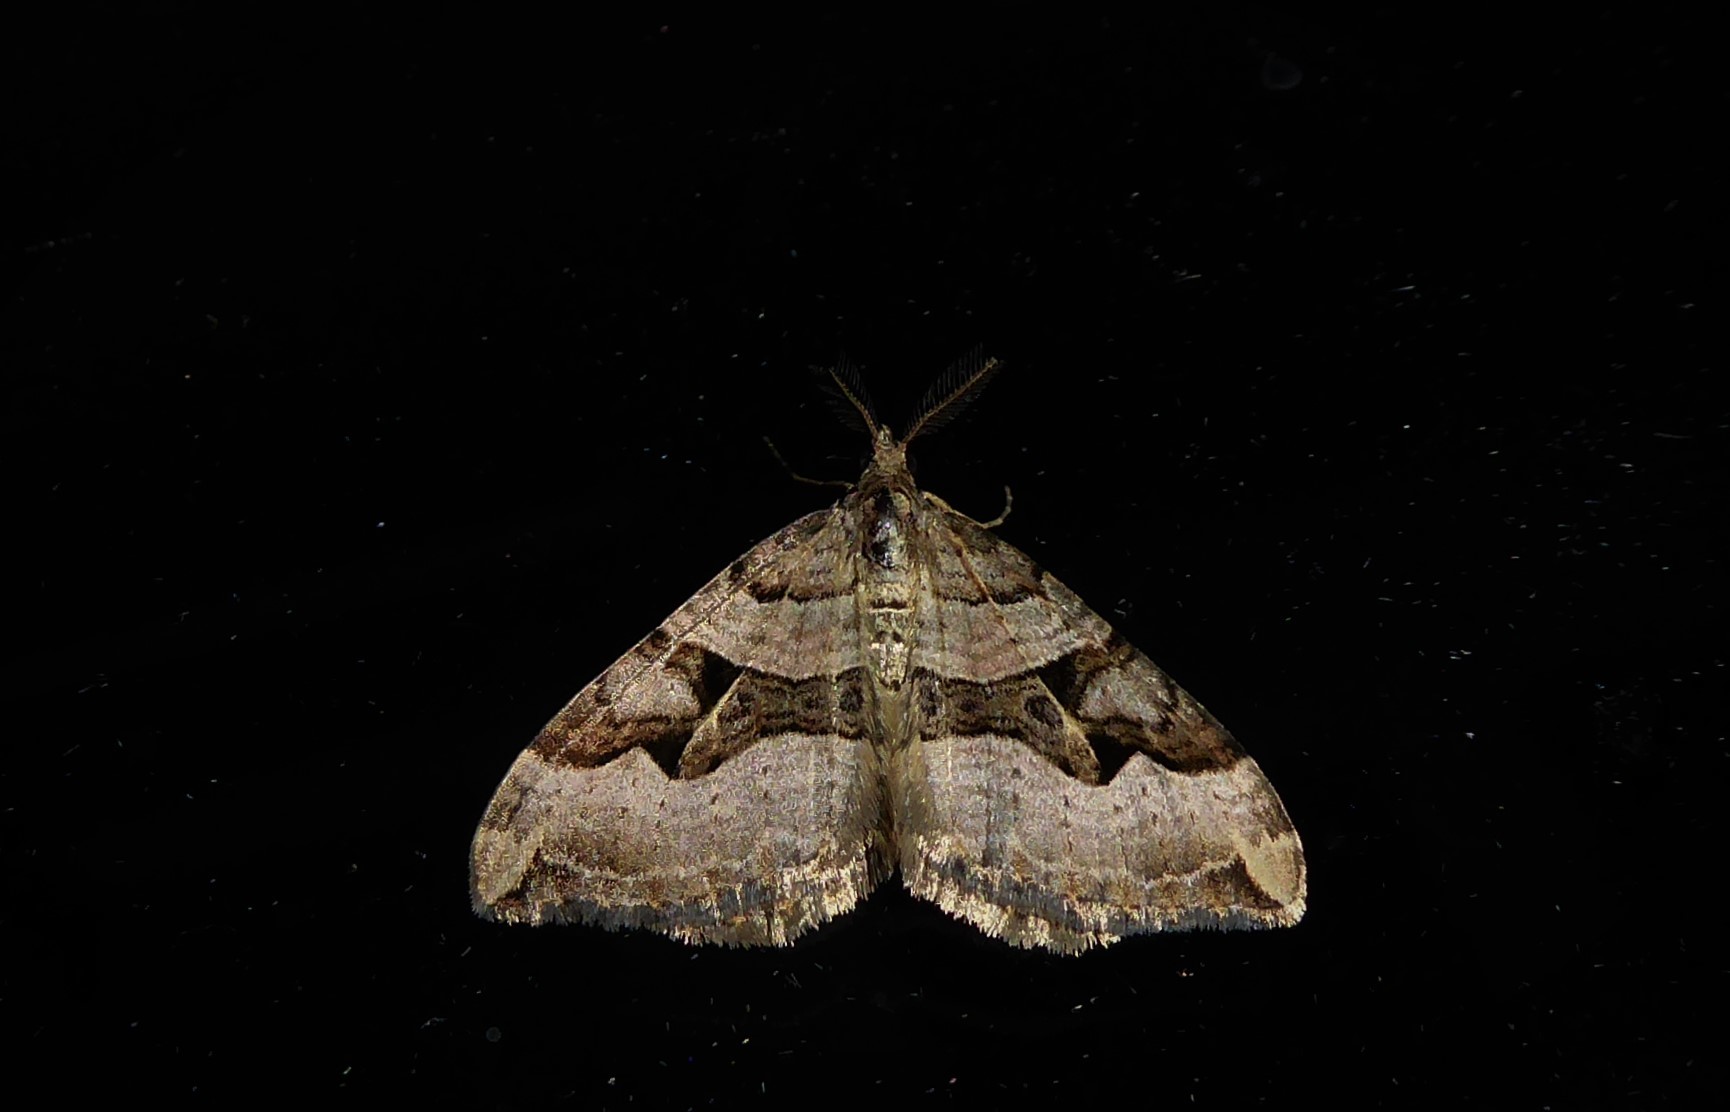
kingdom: Animalia
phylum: Arthropoda
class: Insecta
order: Lepidoptera
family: Geometridae
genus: Xanthorhoe
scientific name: Xanthorhoe semifissata
